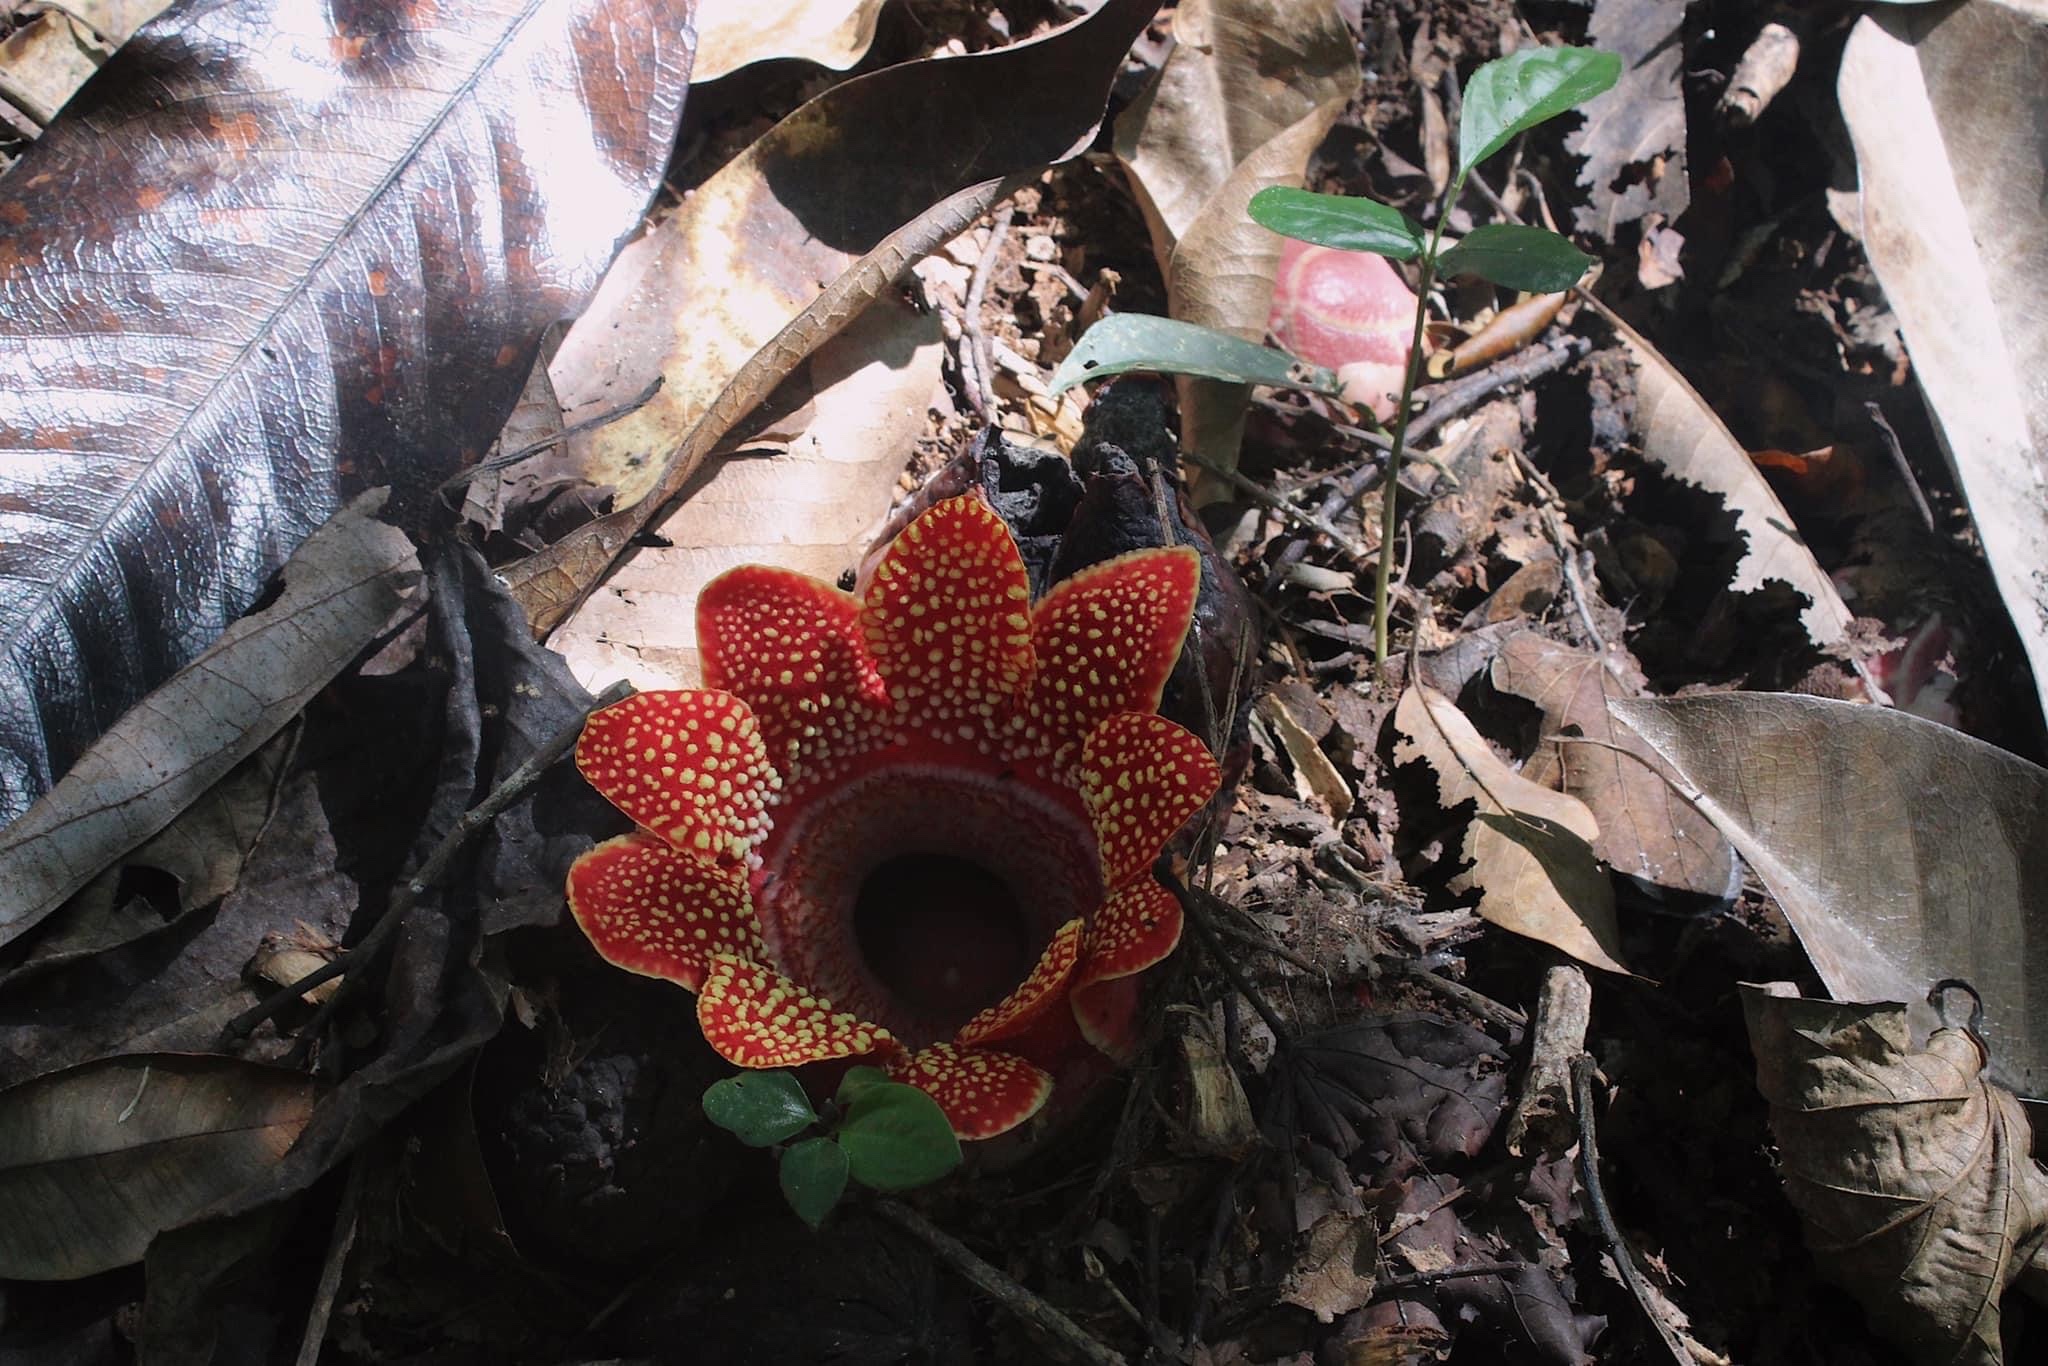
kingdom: Plantae
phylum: Tracheophyta
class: Magnoliopsida
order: Malpighiales
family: Rafflesiaceae
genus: Sapria
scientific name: Sapria himalayana
